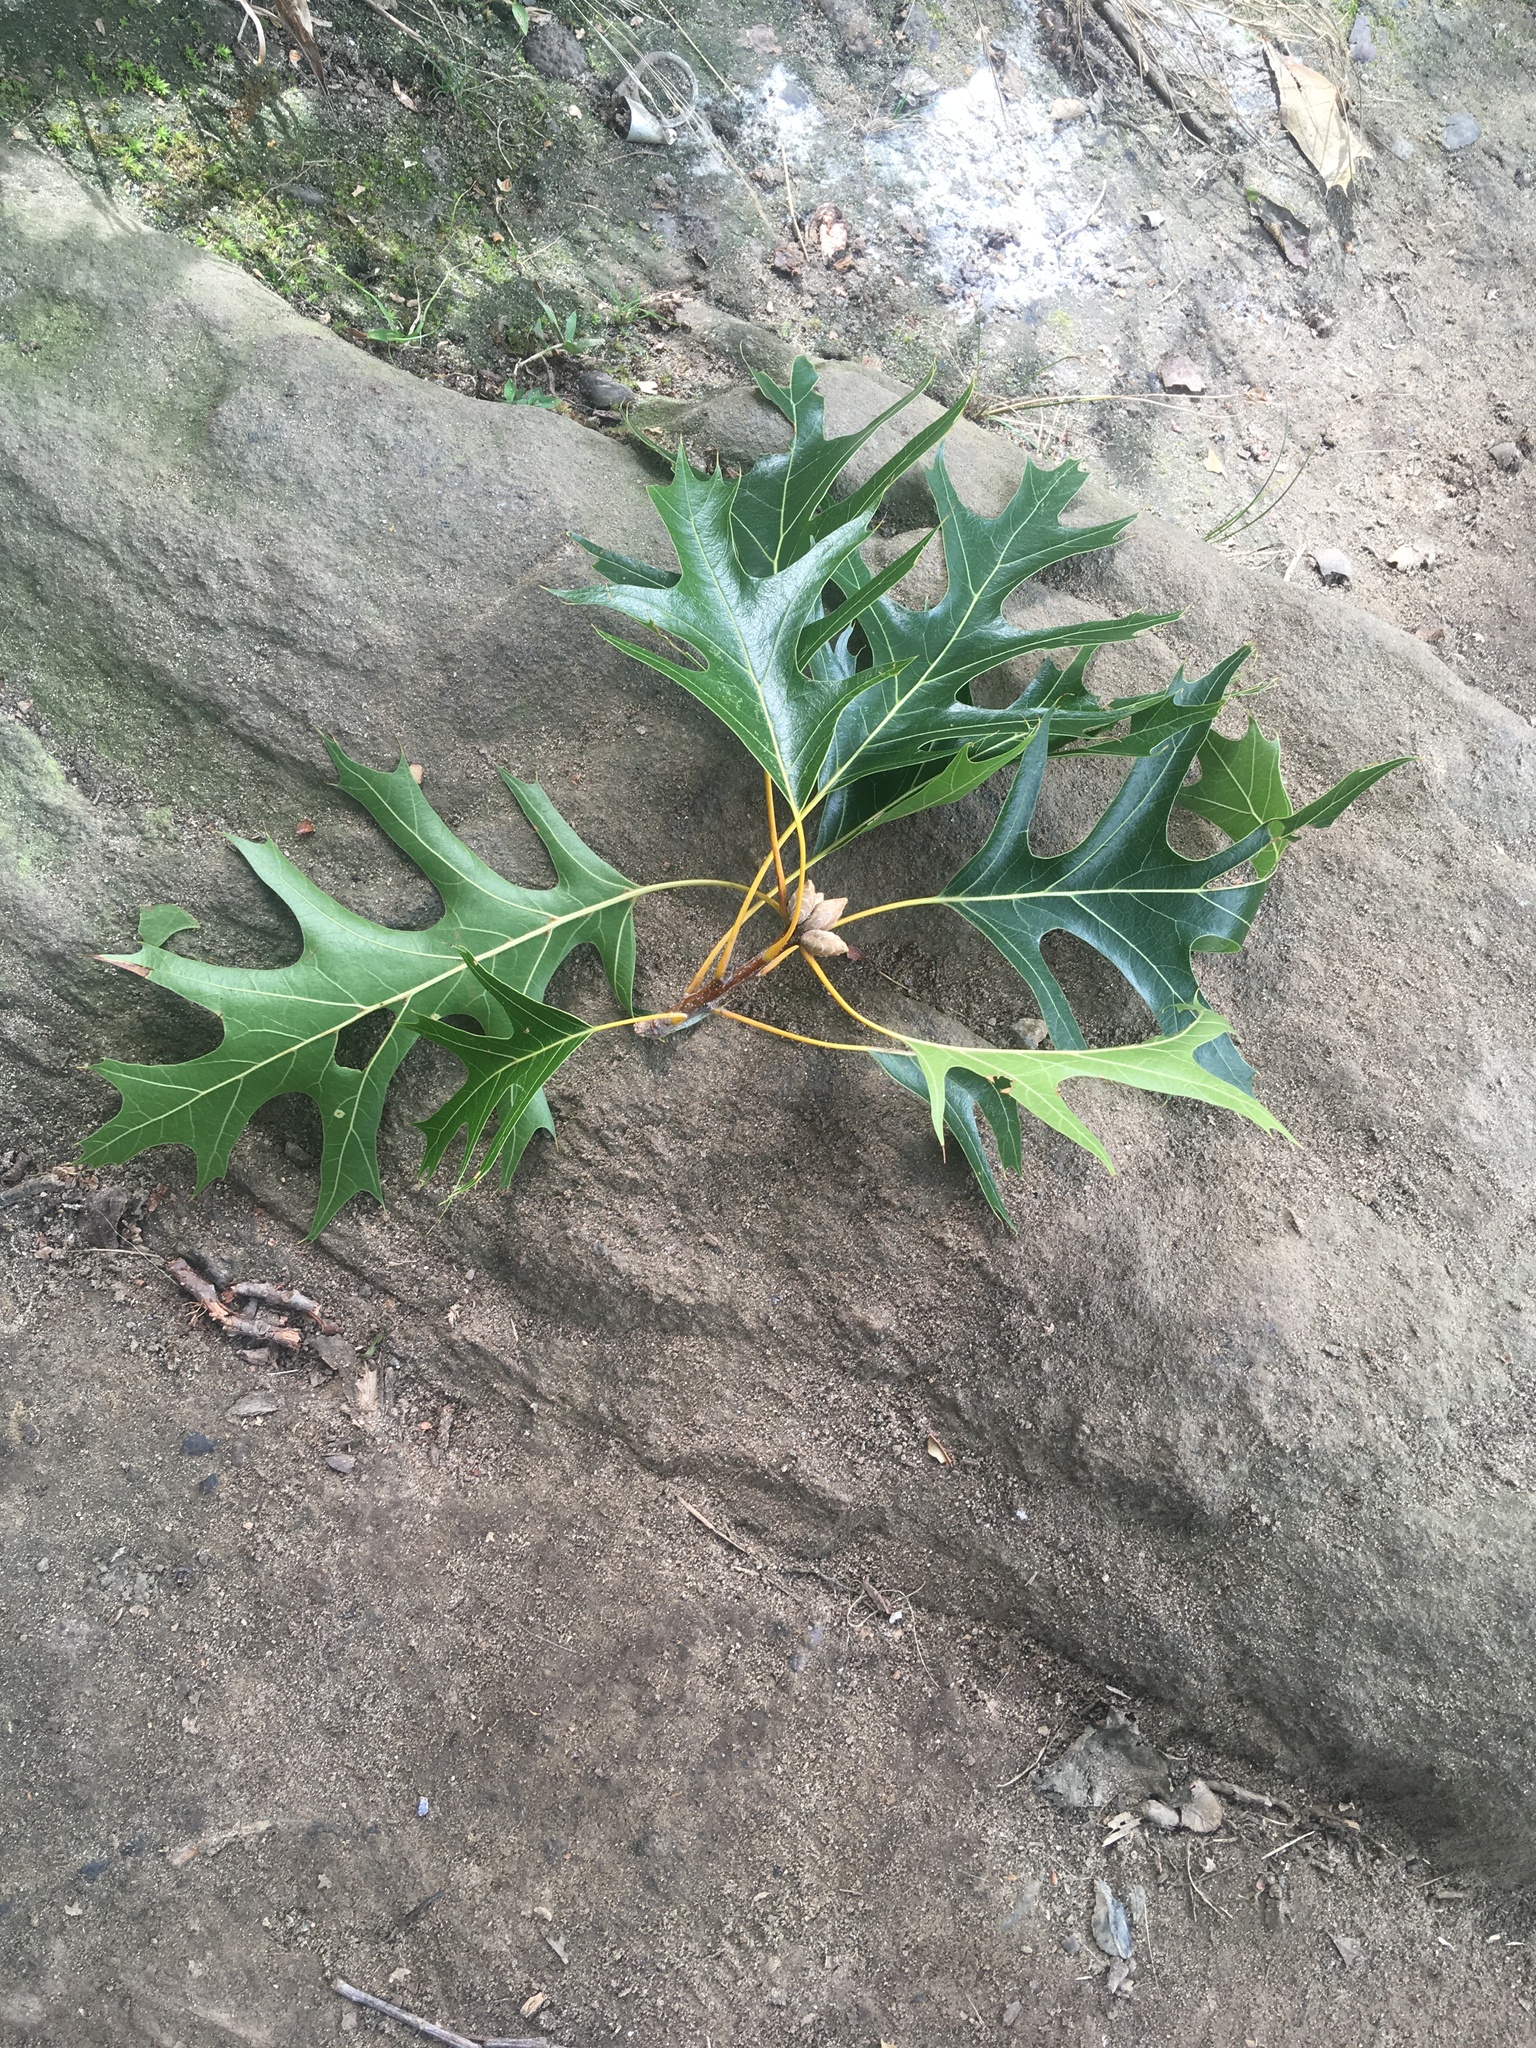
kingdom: Plantae
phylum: Tracheophyta
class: Magnoliopsida
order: Fagales
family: Fagaceae
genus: Quercus
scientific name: Quercus velutina
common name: Black oak
